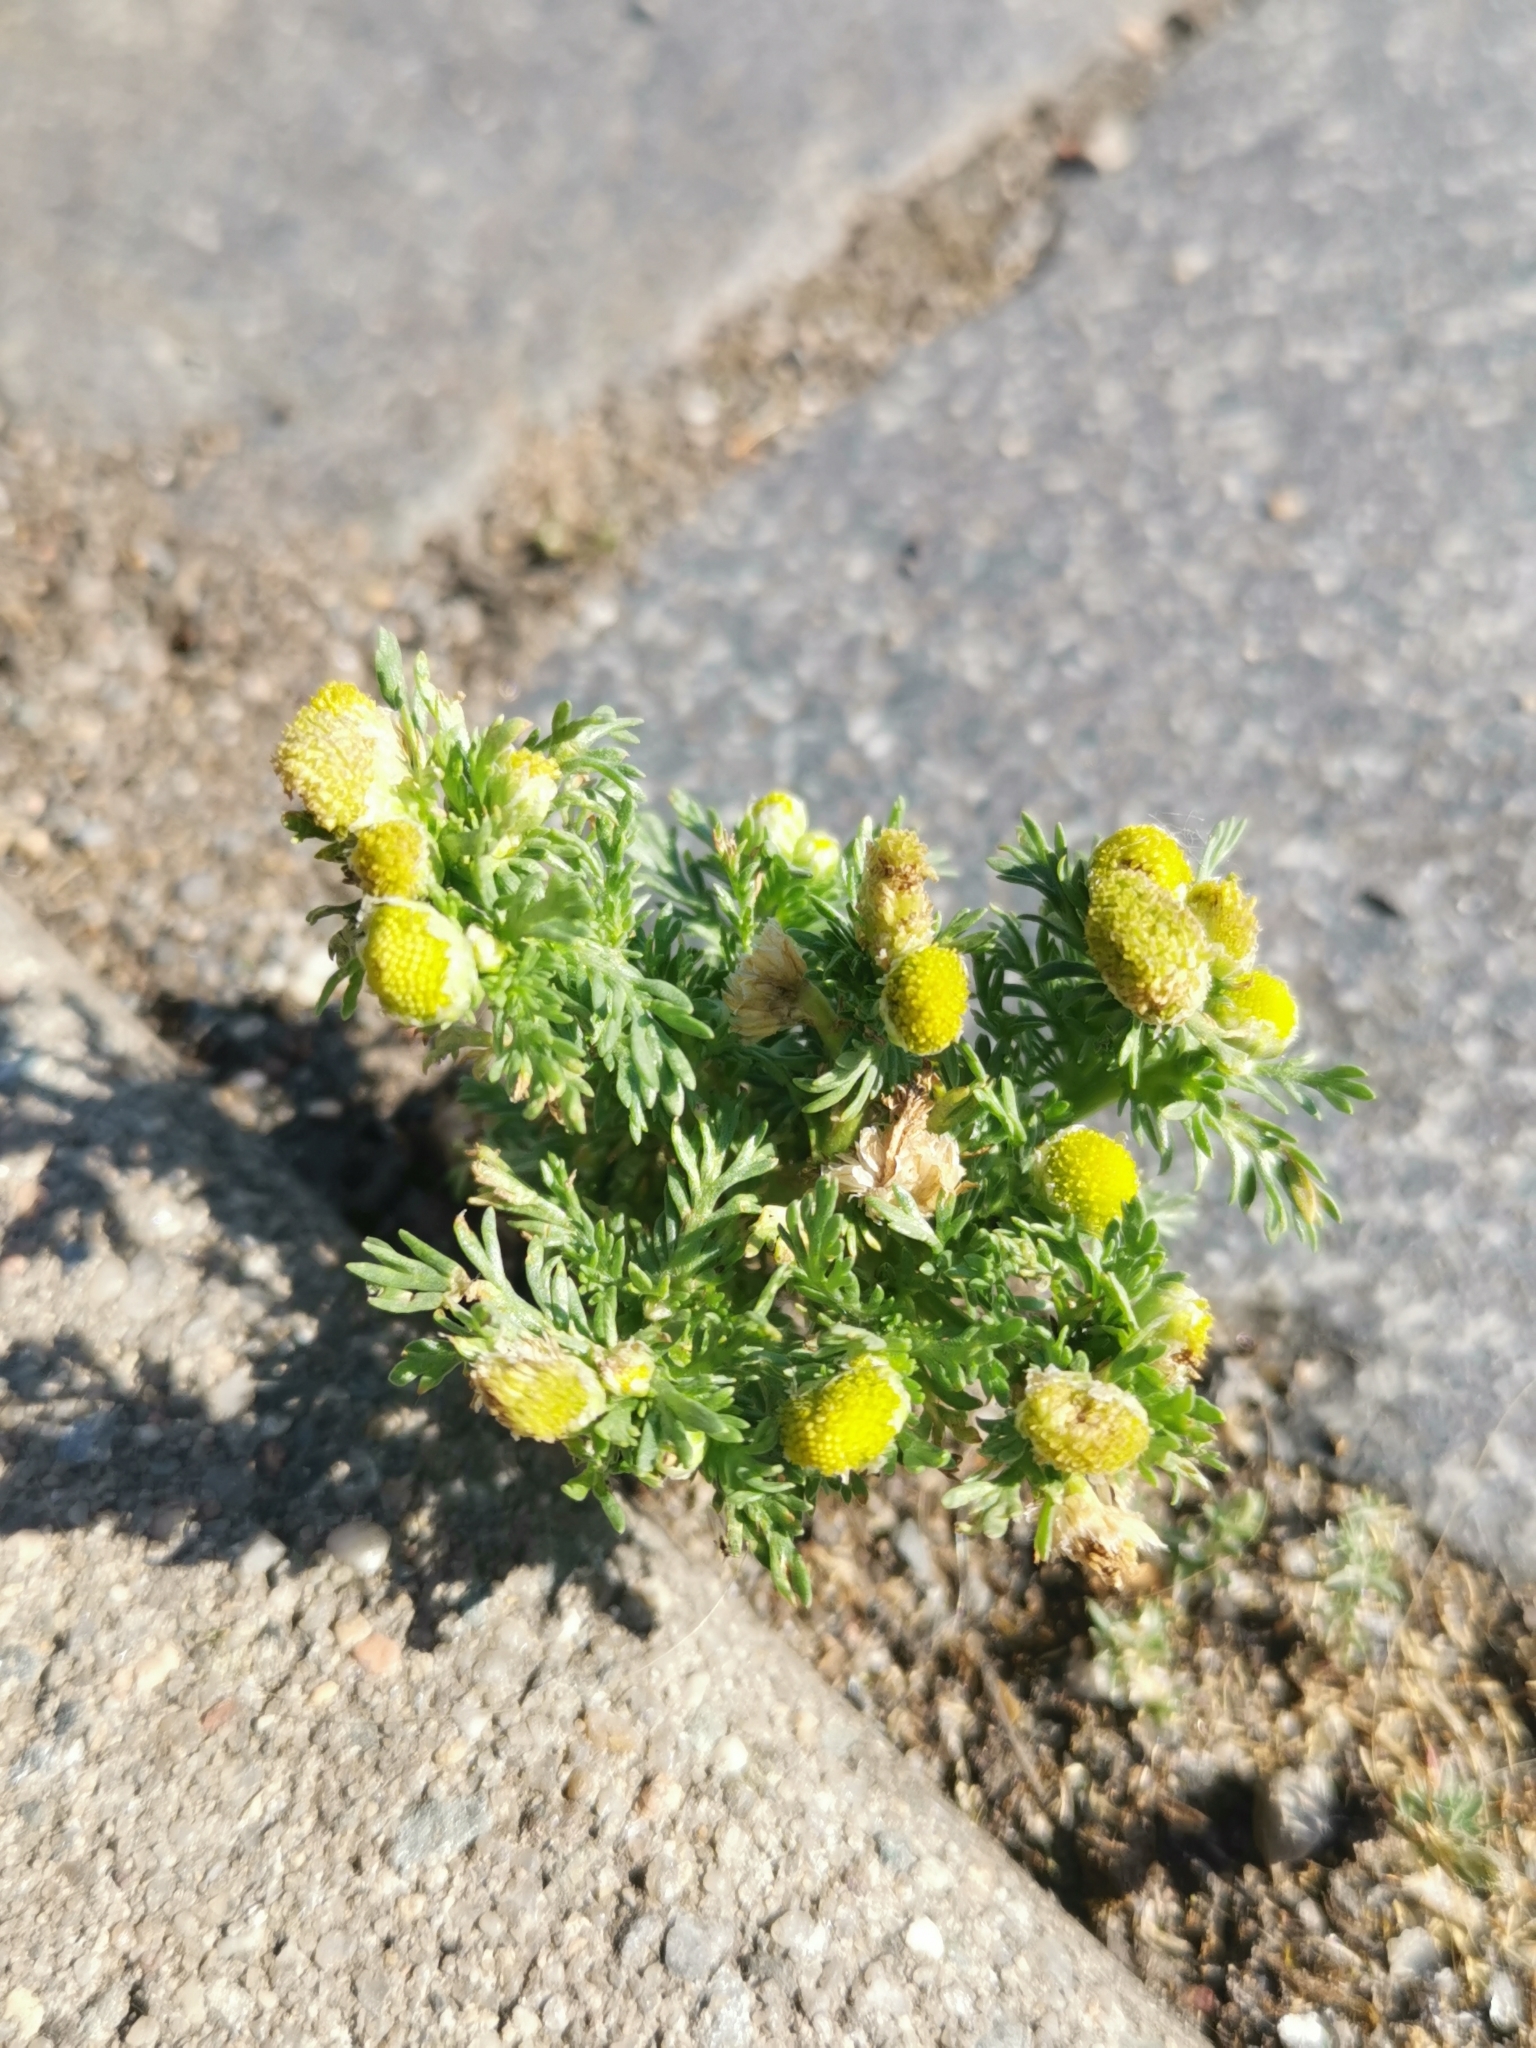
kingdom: Plantae
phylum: Tracheophyta
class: Magnoliopsida
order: Asterales
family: Asteraceae
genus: Matricaria
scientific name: Matricaria discoidea
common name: Disc mayweed
